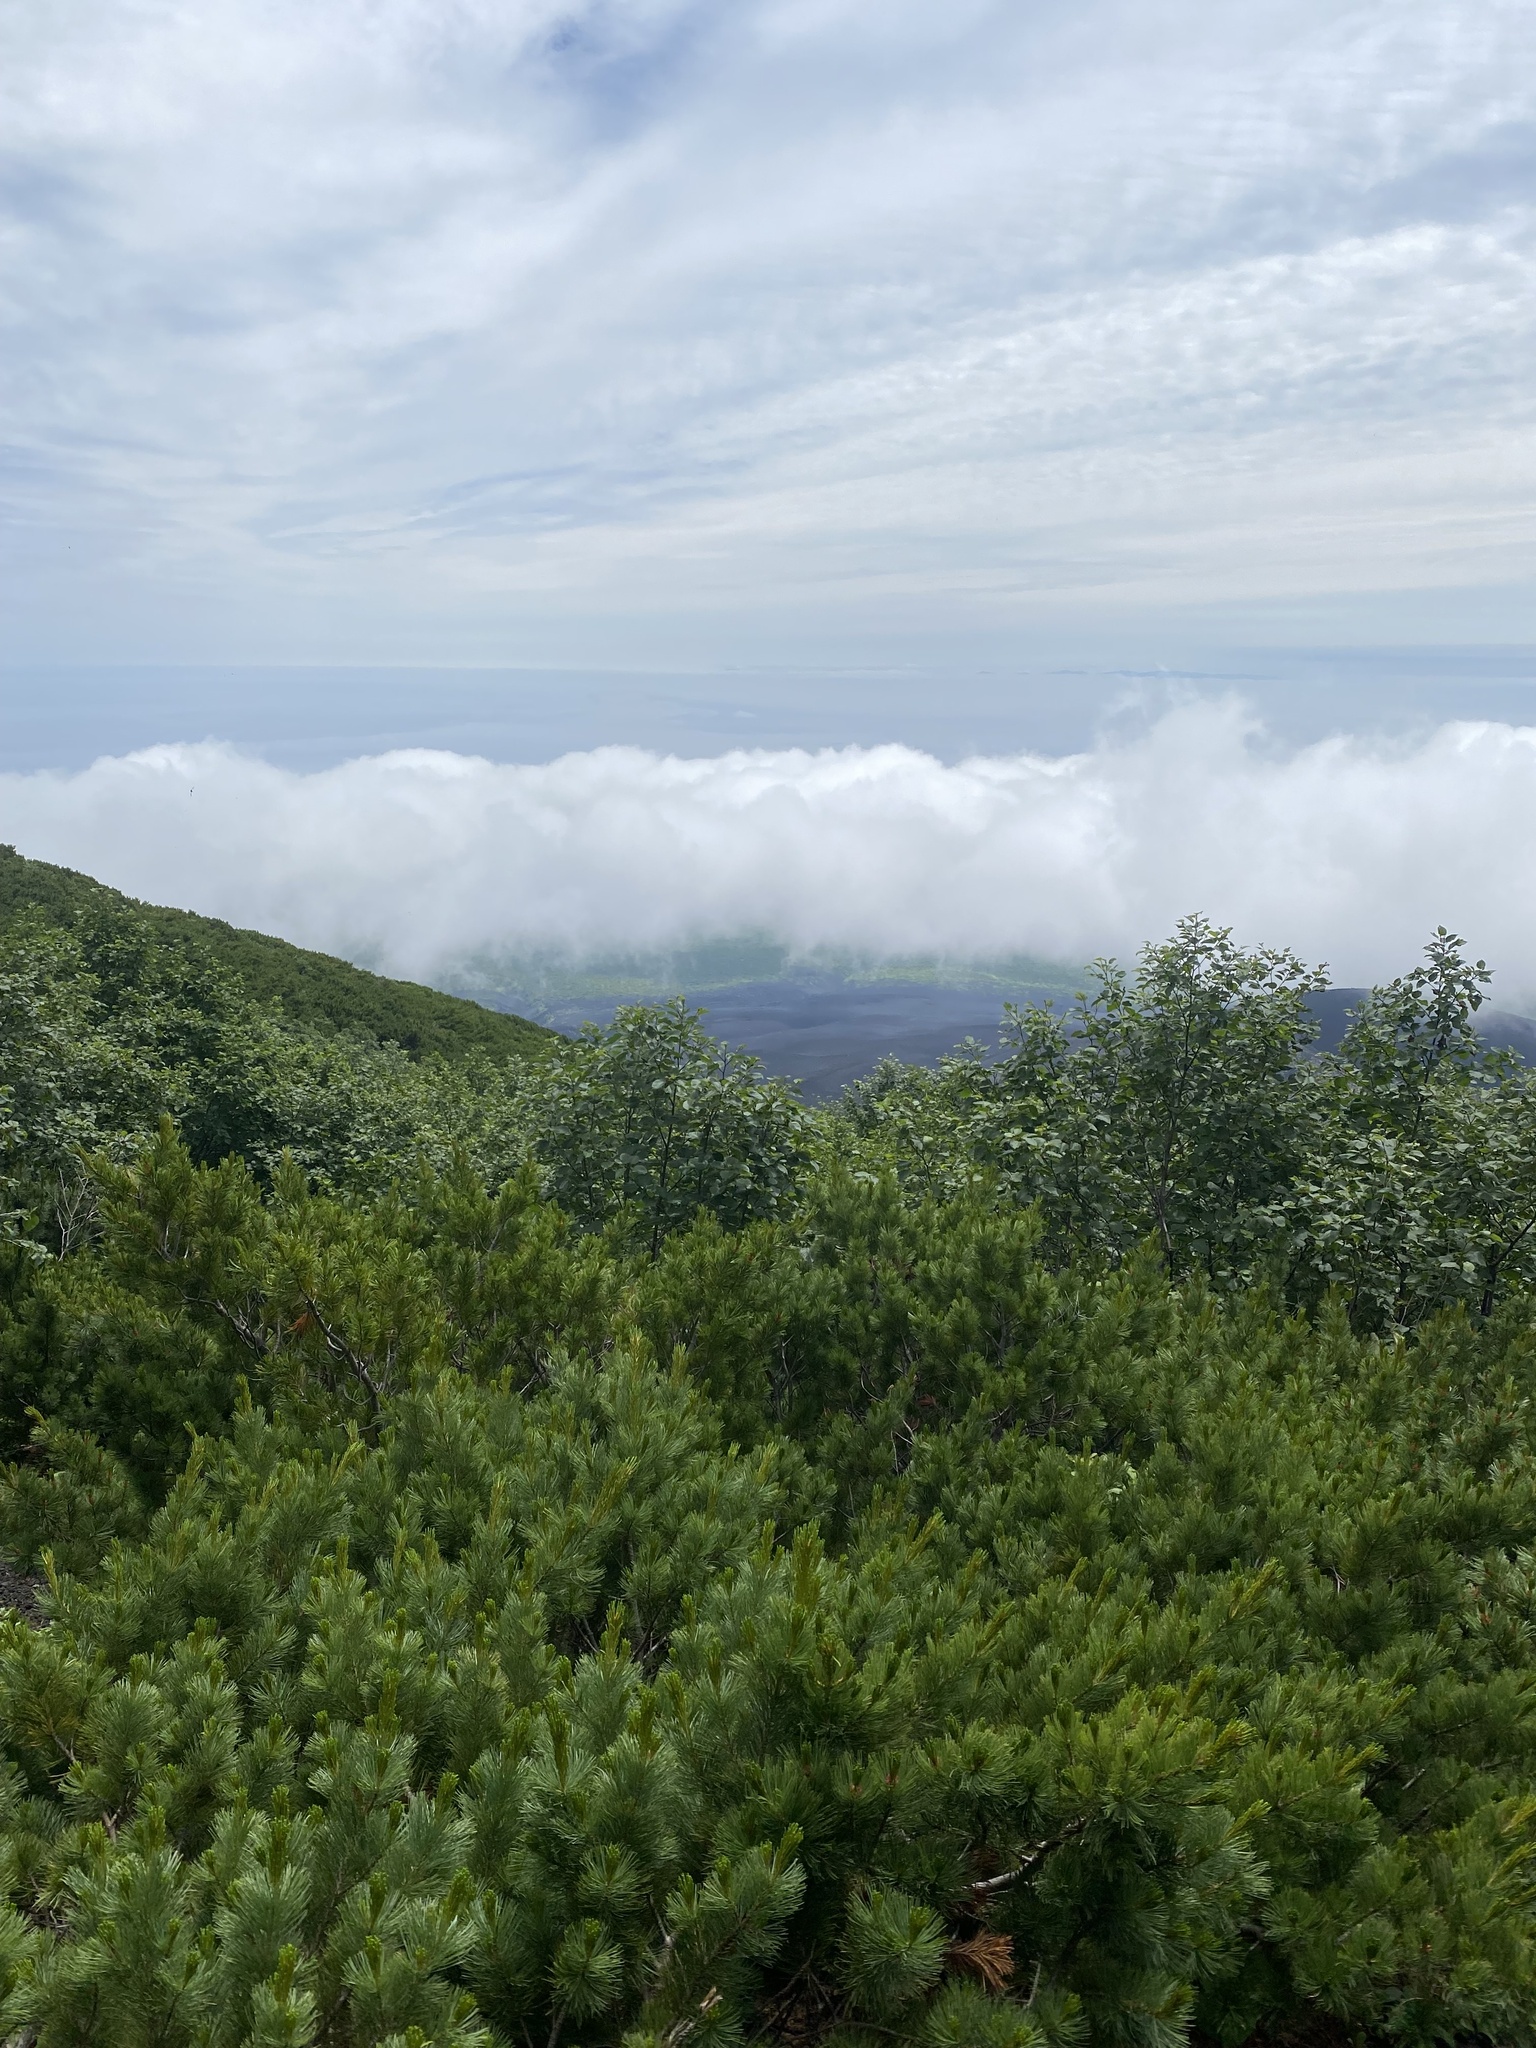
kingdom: Plantae
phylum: Tracheophyta
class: Pinopsida
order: Pinales
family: Pinaceae
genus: Pinus
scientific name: Pinus pumila
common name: Dwarf siberian pine
